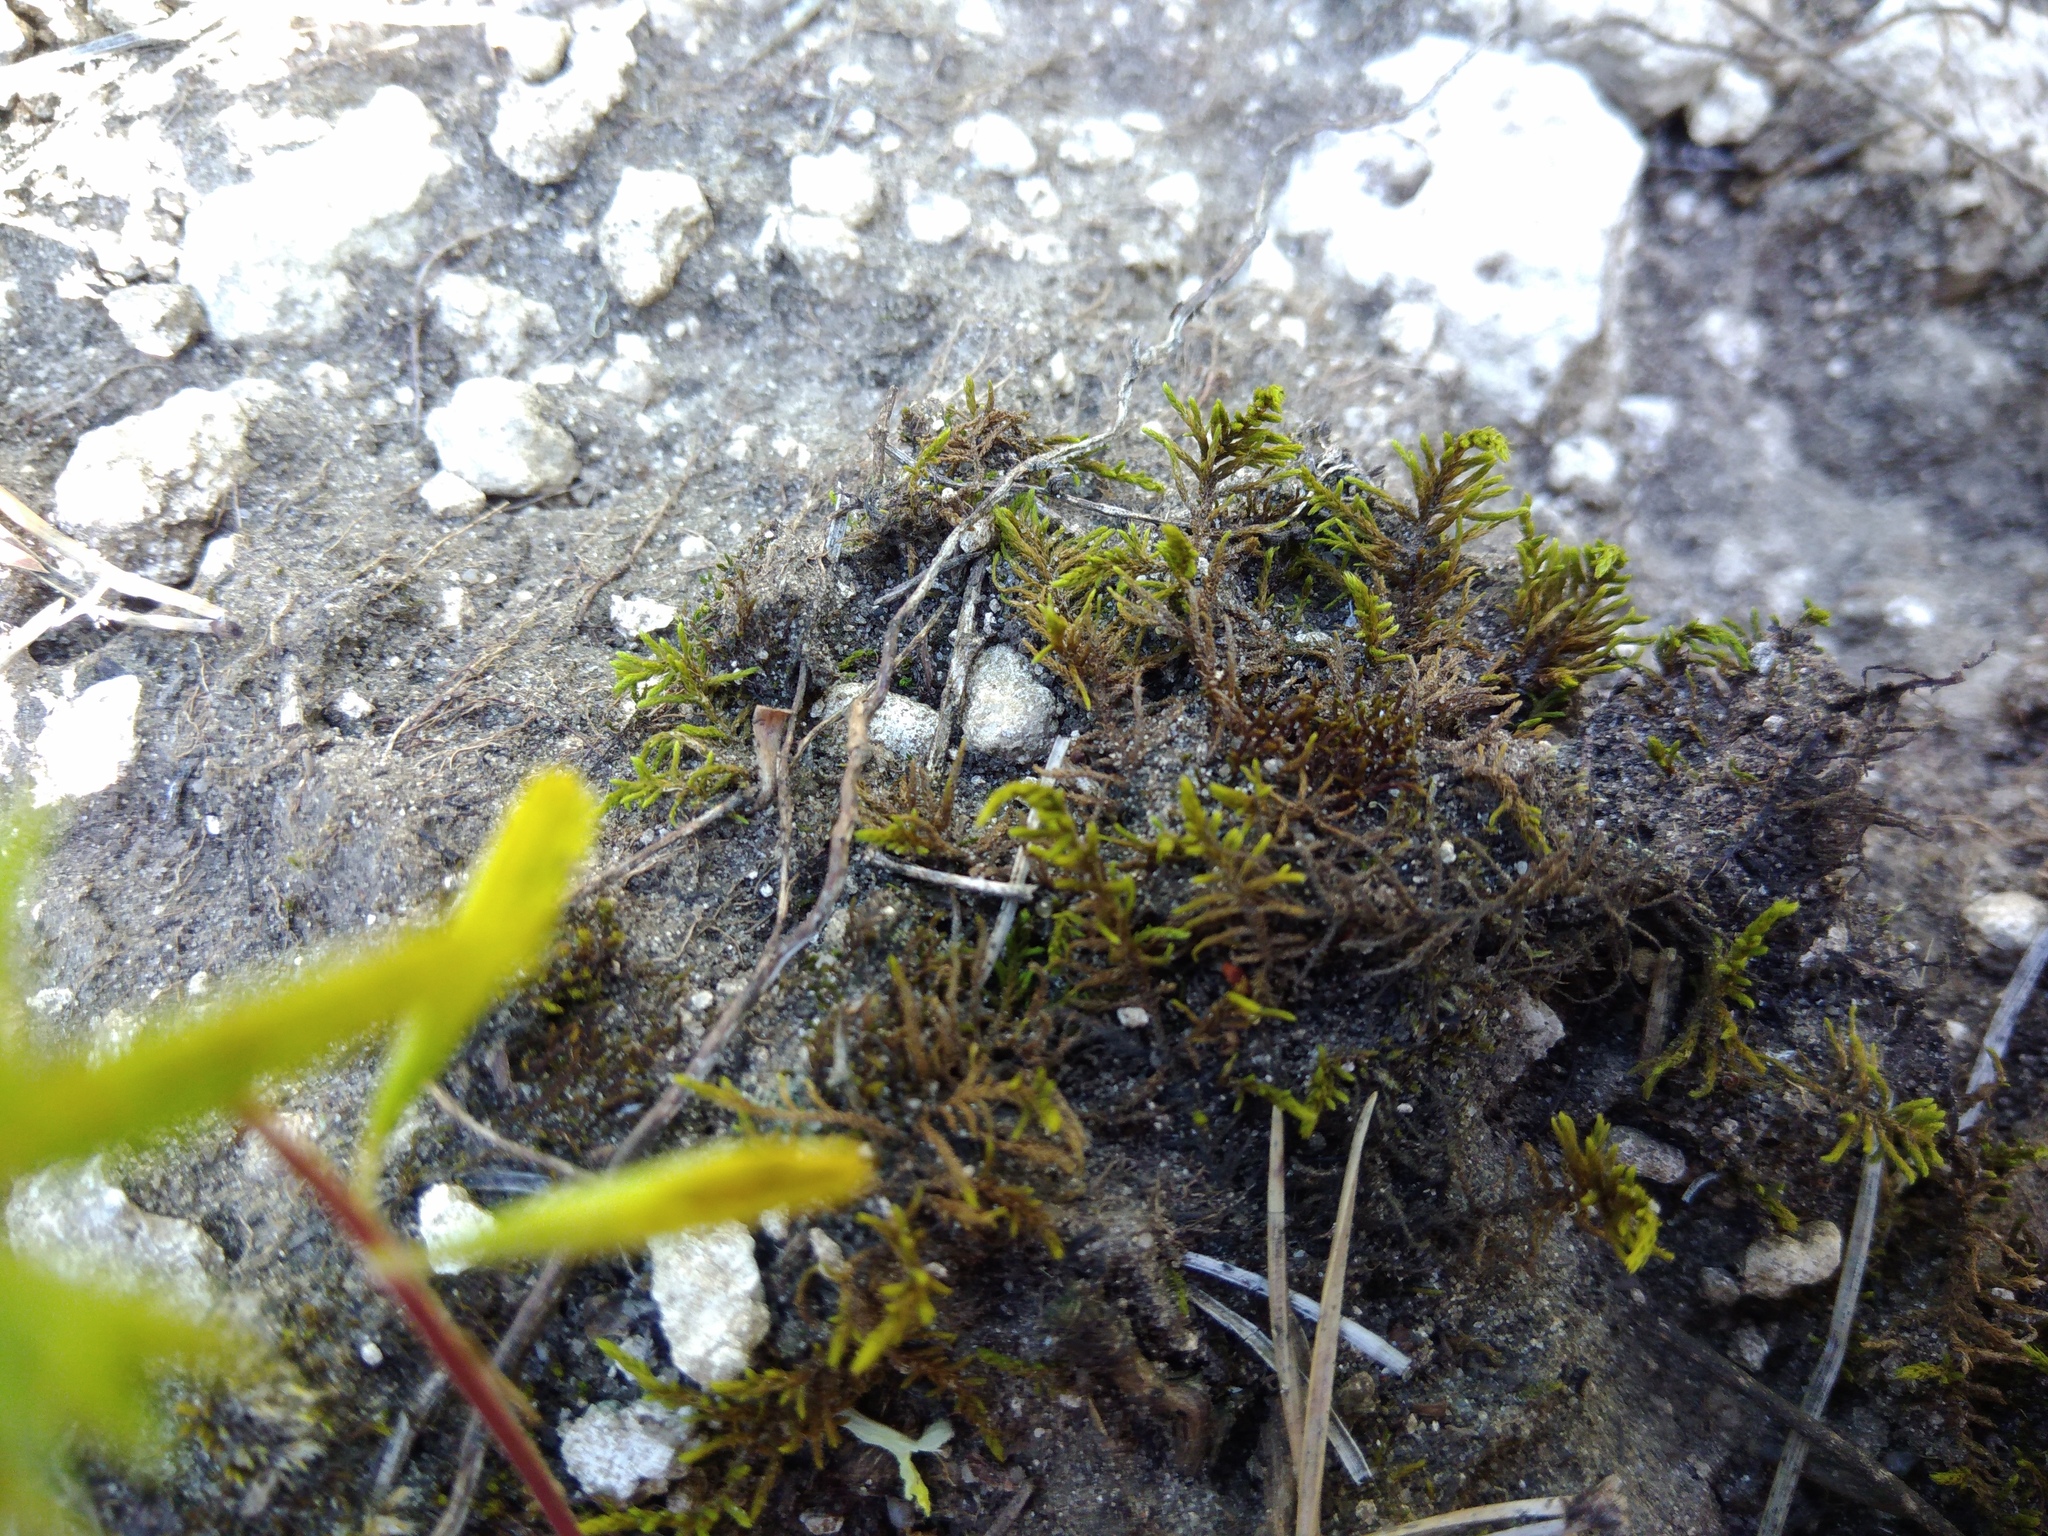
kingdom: Plantae
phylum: Bryophyta
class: Bryopsida
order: Hypnales
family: Thuidiaceae
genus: Abietinella
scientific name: Abietinella abietina
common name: Wiry fern moss
